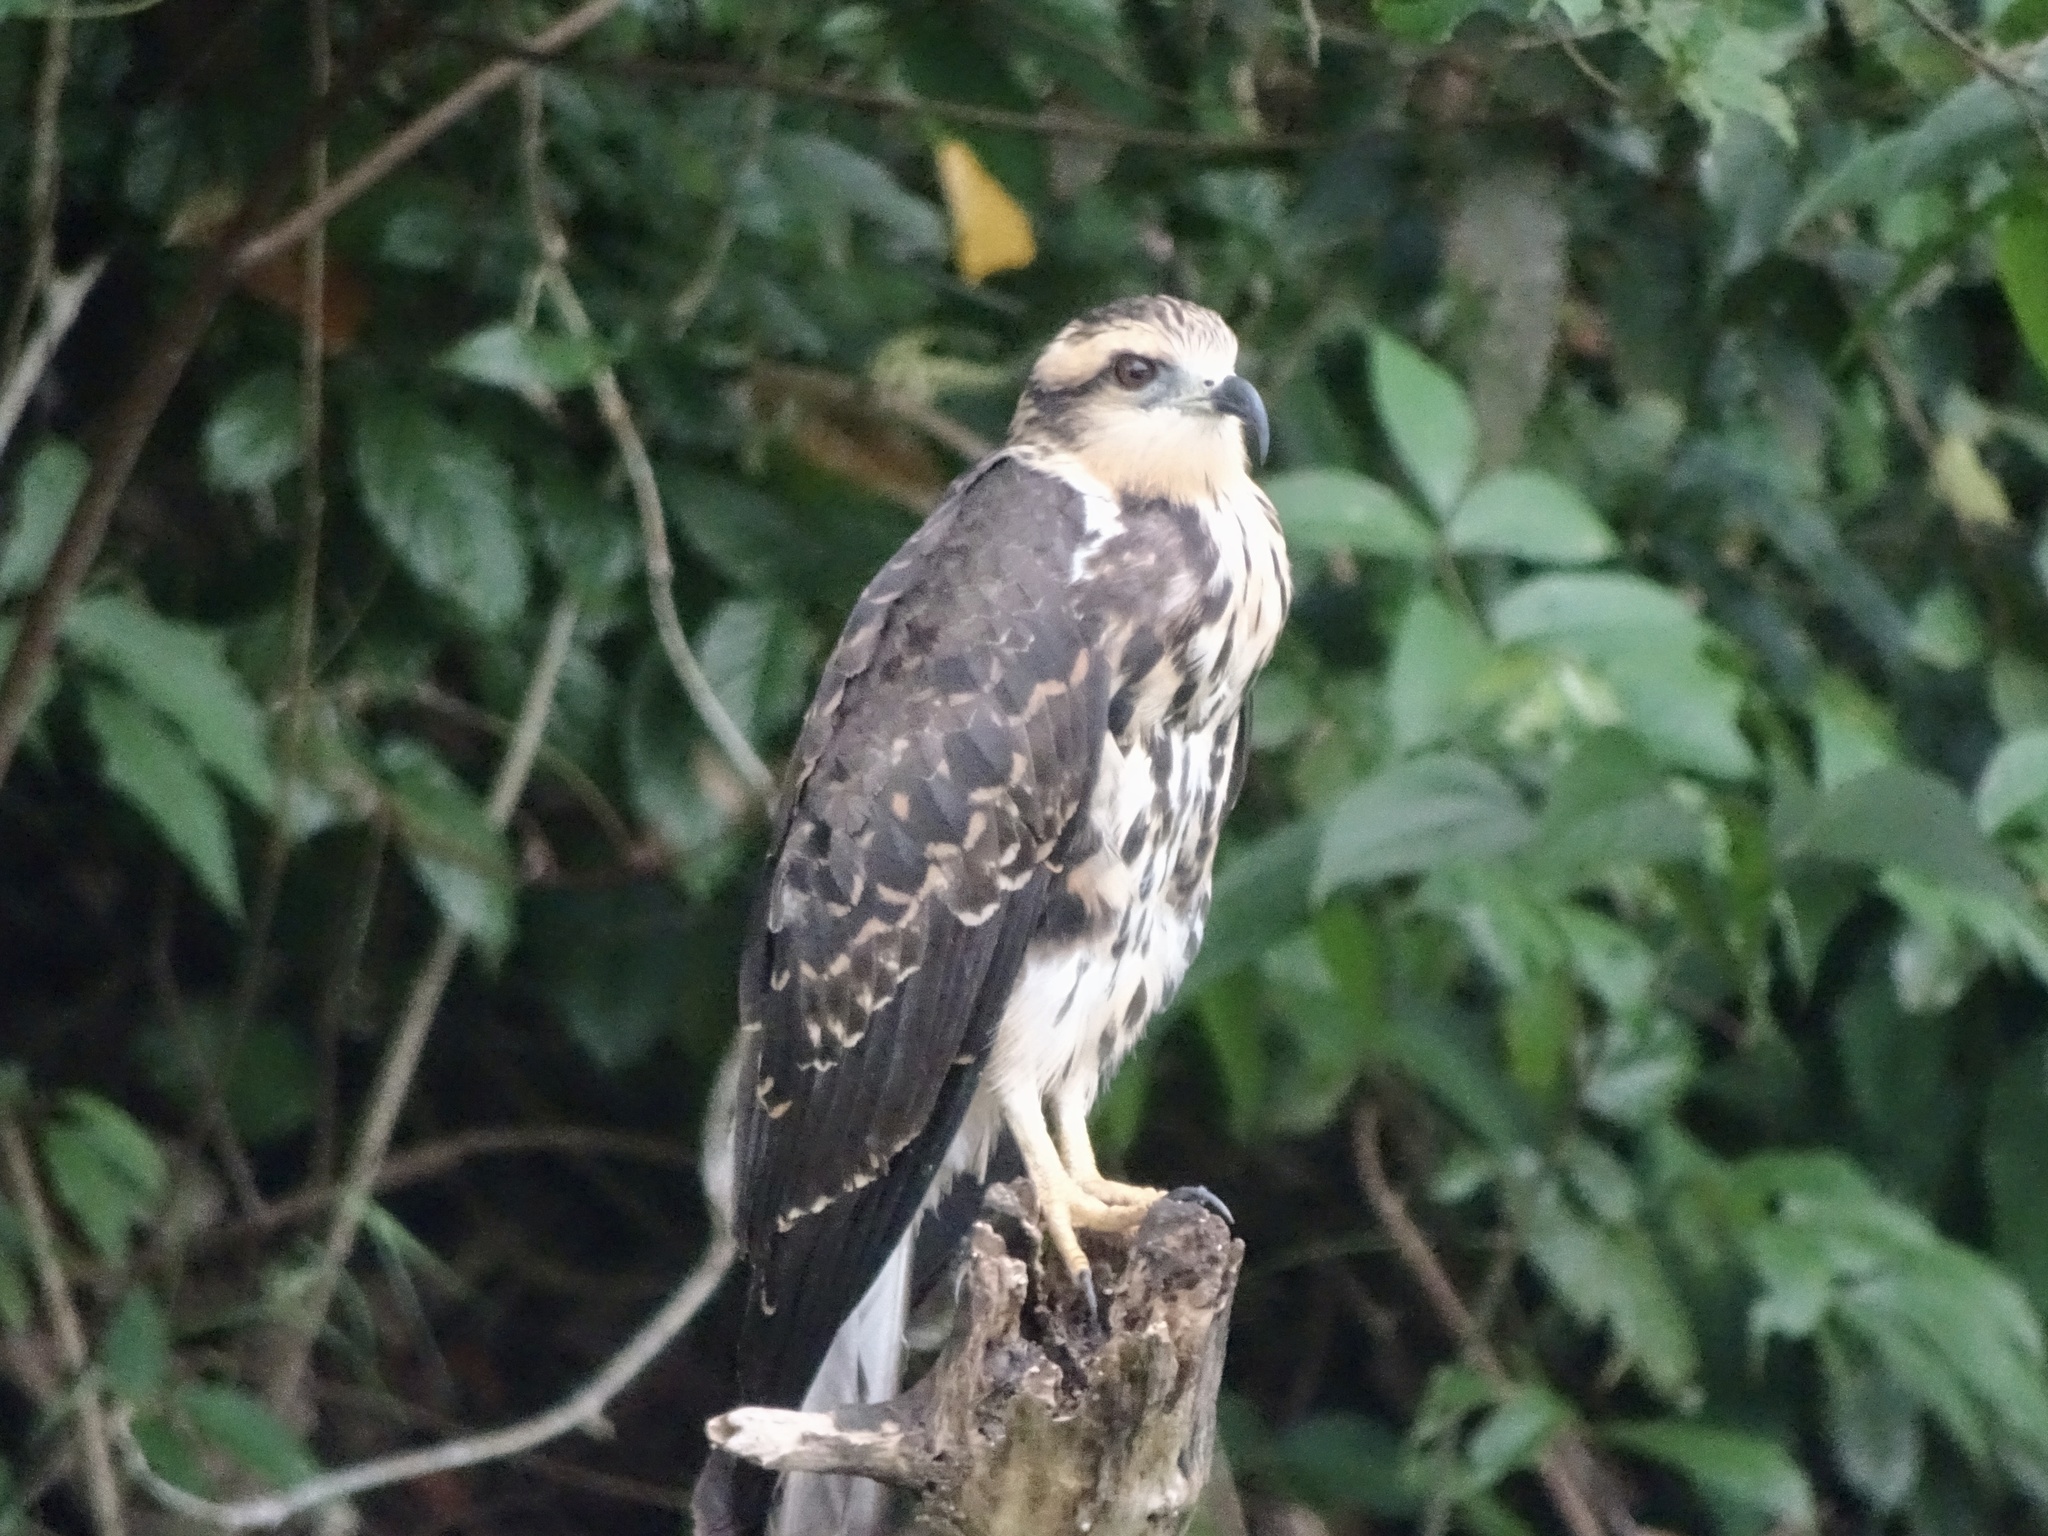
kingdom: Animalia
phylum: Chordata
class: Aves
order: Accipitriformes
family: Accipitridae
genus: Rostrhamus
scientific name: Rostrhamus sociabilis
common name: Snail kite
